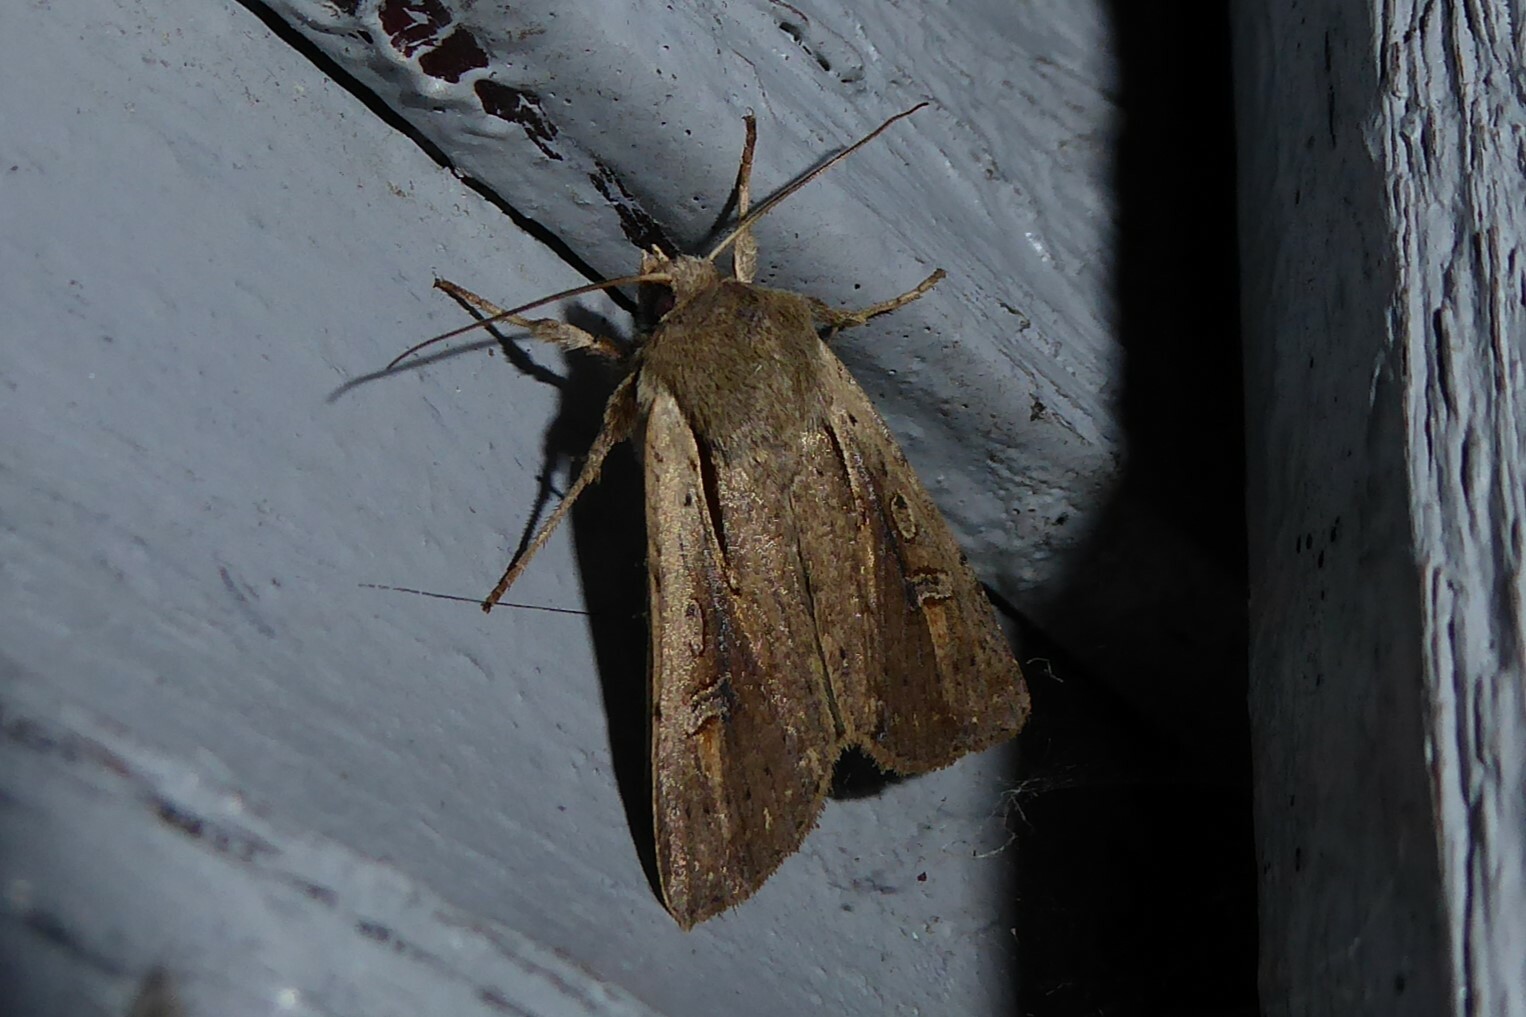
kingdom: Animalia
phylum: Arthropoda
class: Insecta
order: Lepidoptera
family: Noctuidae
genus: Ichneutica
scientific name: Ichneutica atristriga
